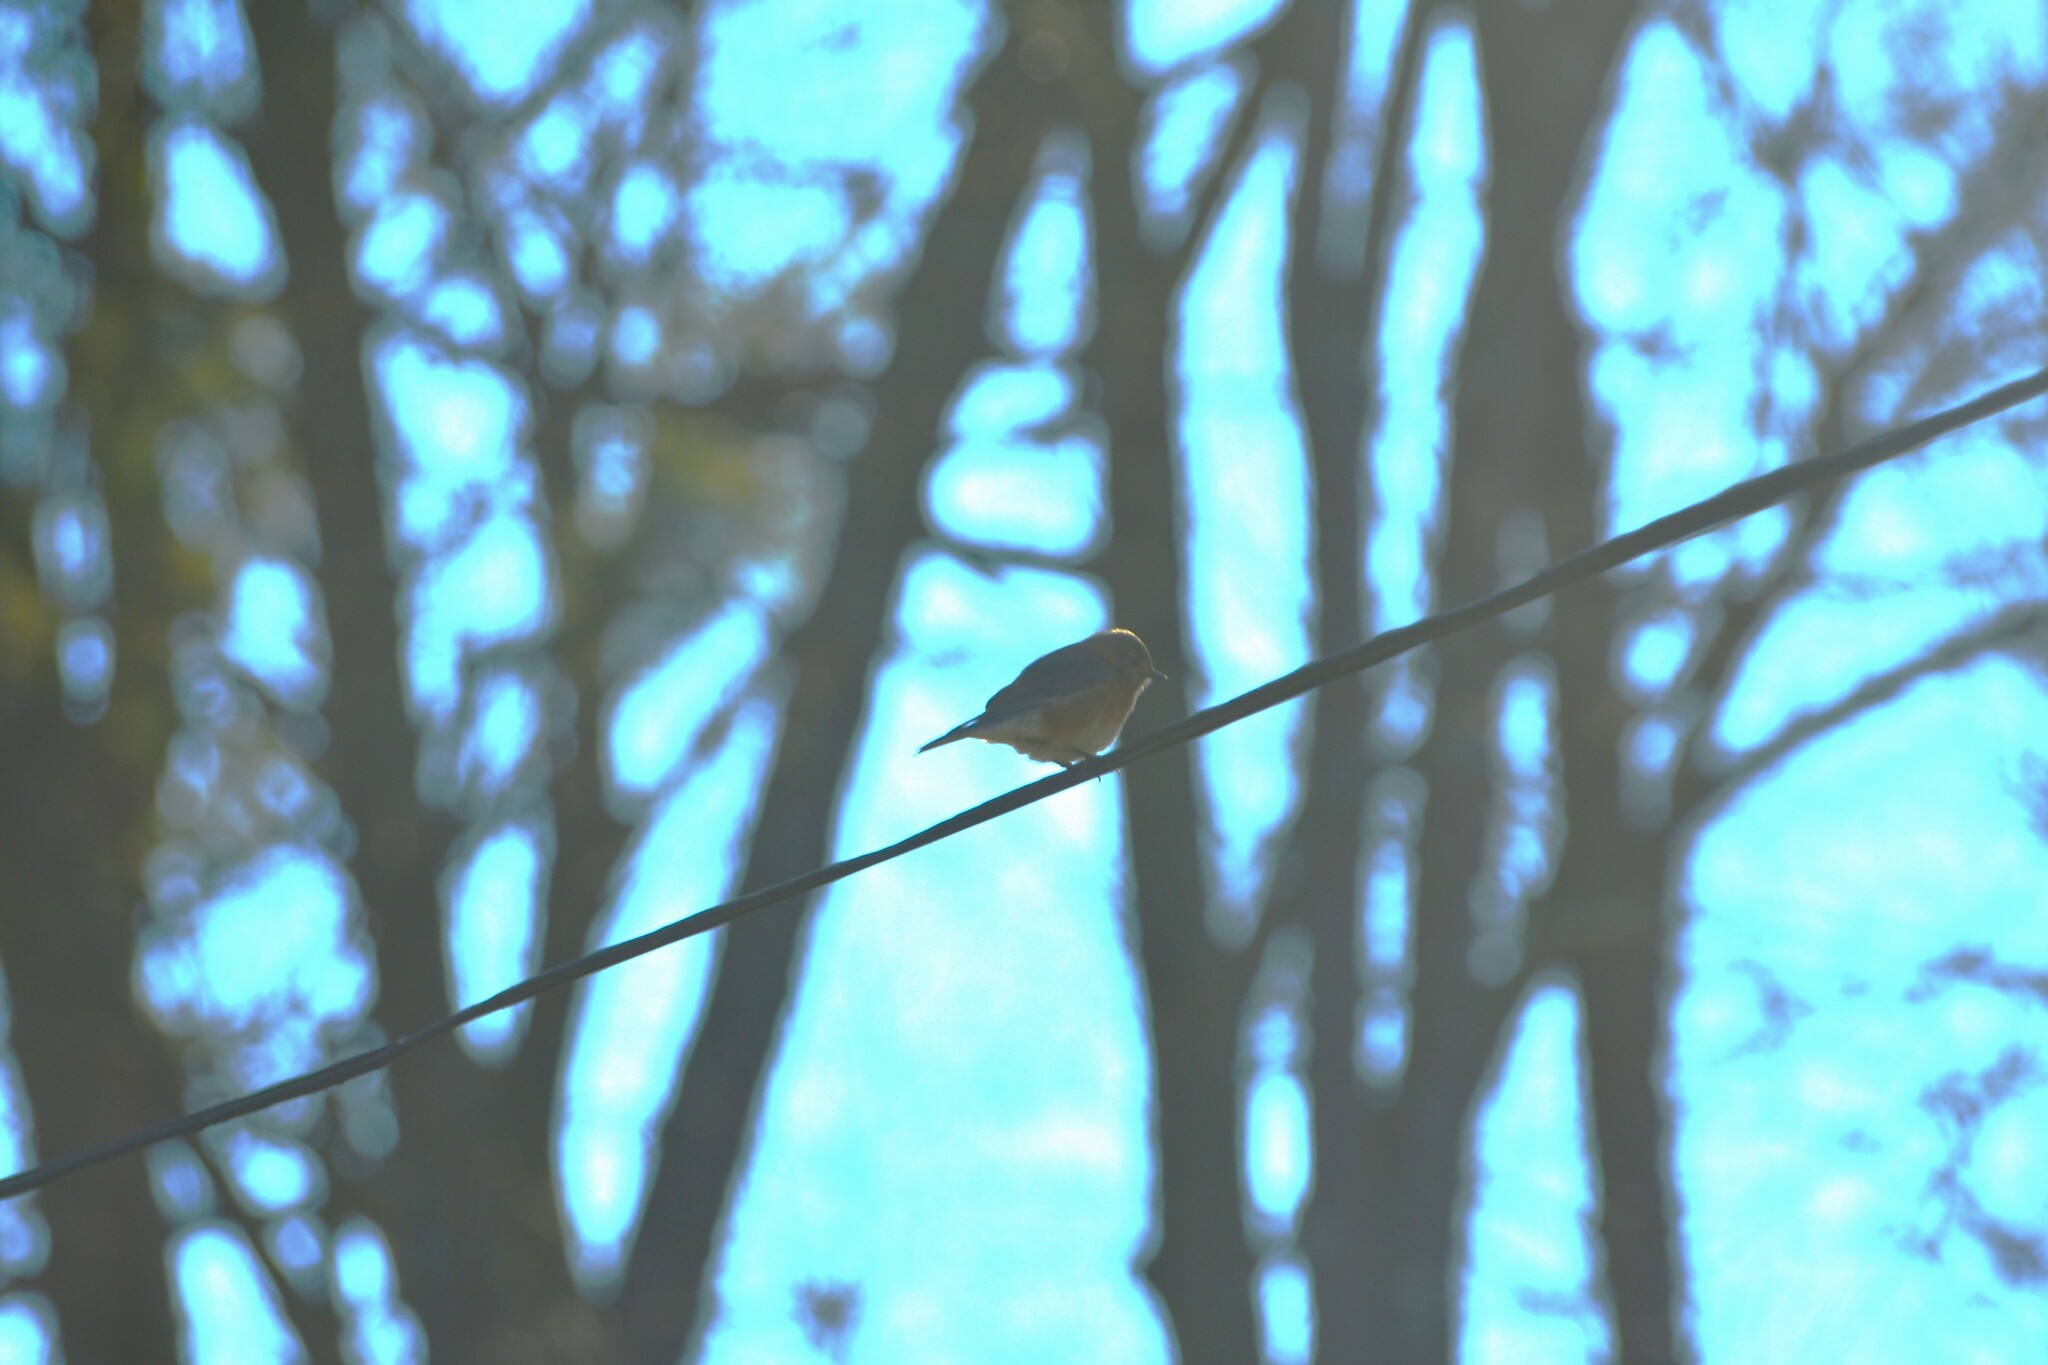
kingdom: Animalia
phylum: Chordata
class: Aves
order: Passeriformes
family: Turdidae
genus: Sialia
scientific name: Sialia sialis
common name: Eastern bluebird
